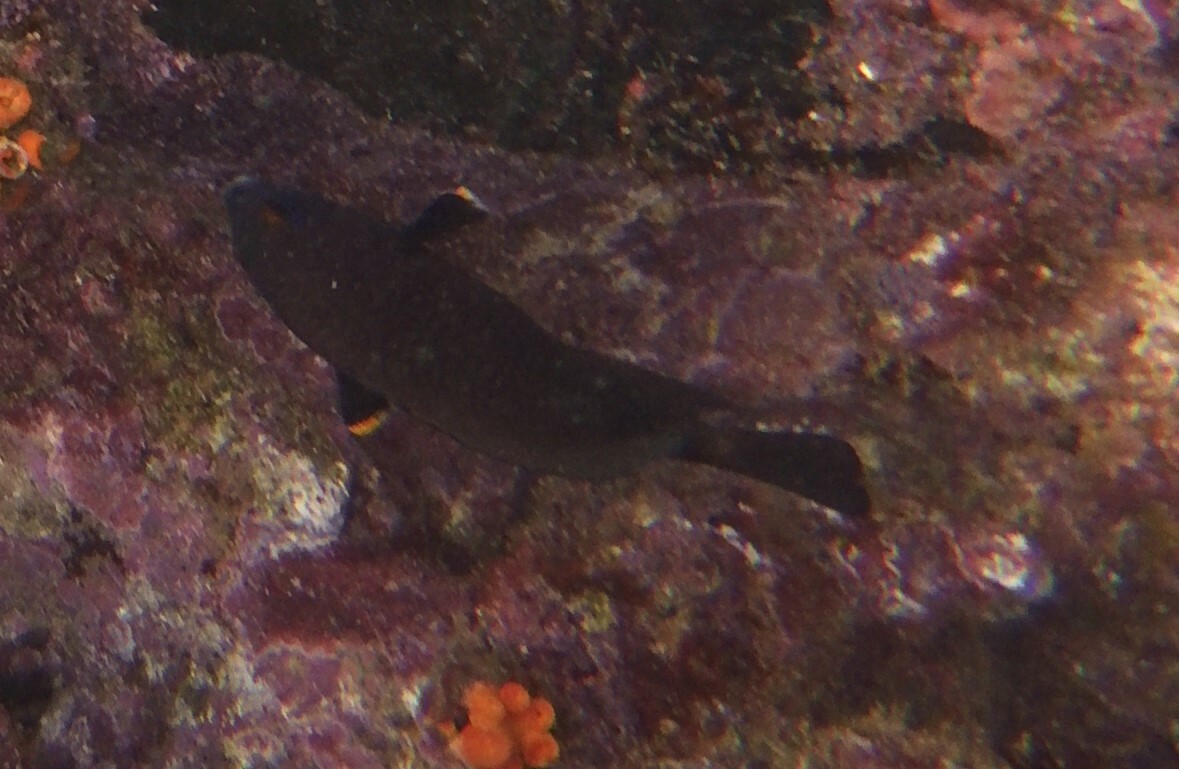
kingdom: Animalia
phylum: Chordata
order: Perciformes
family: Pomacentridae
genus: Stegastes
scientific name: Stegastes beebei
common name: Galapagos ringtail damselfish
